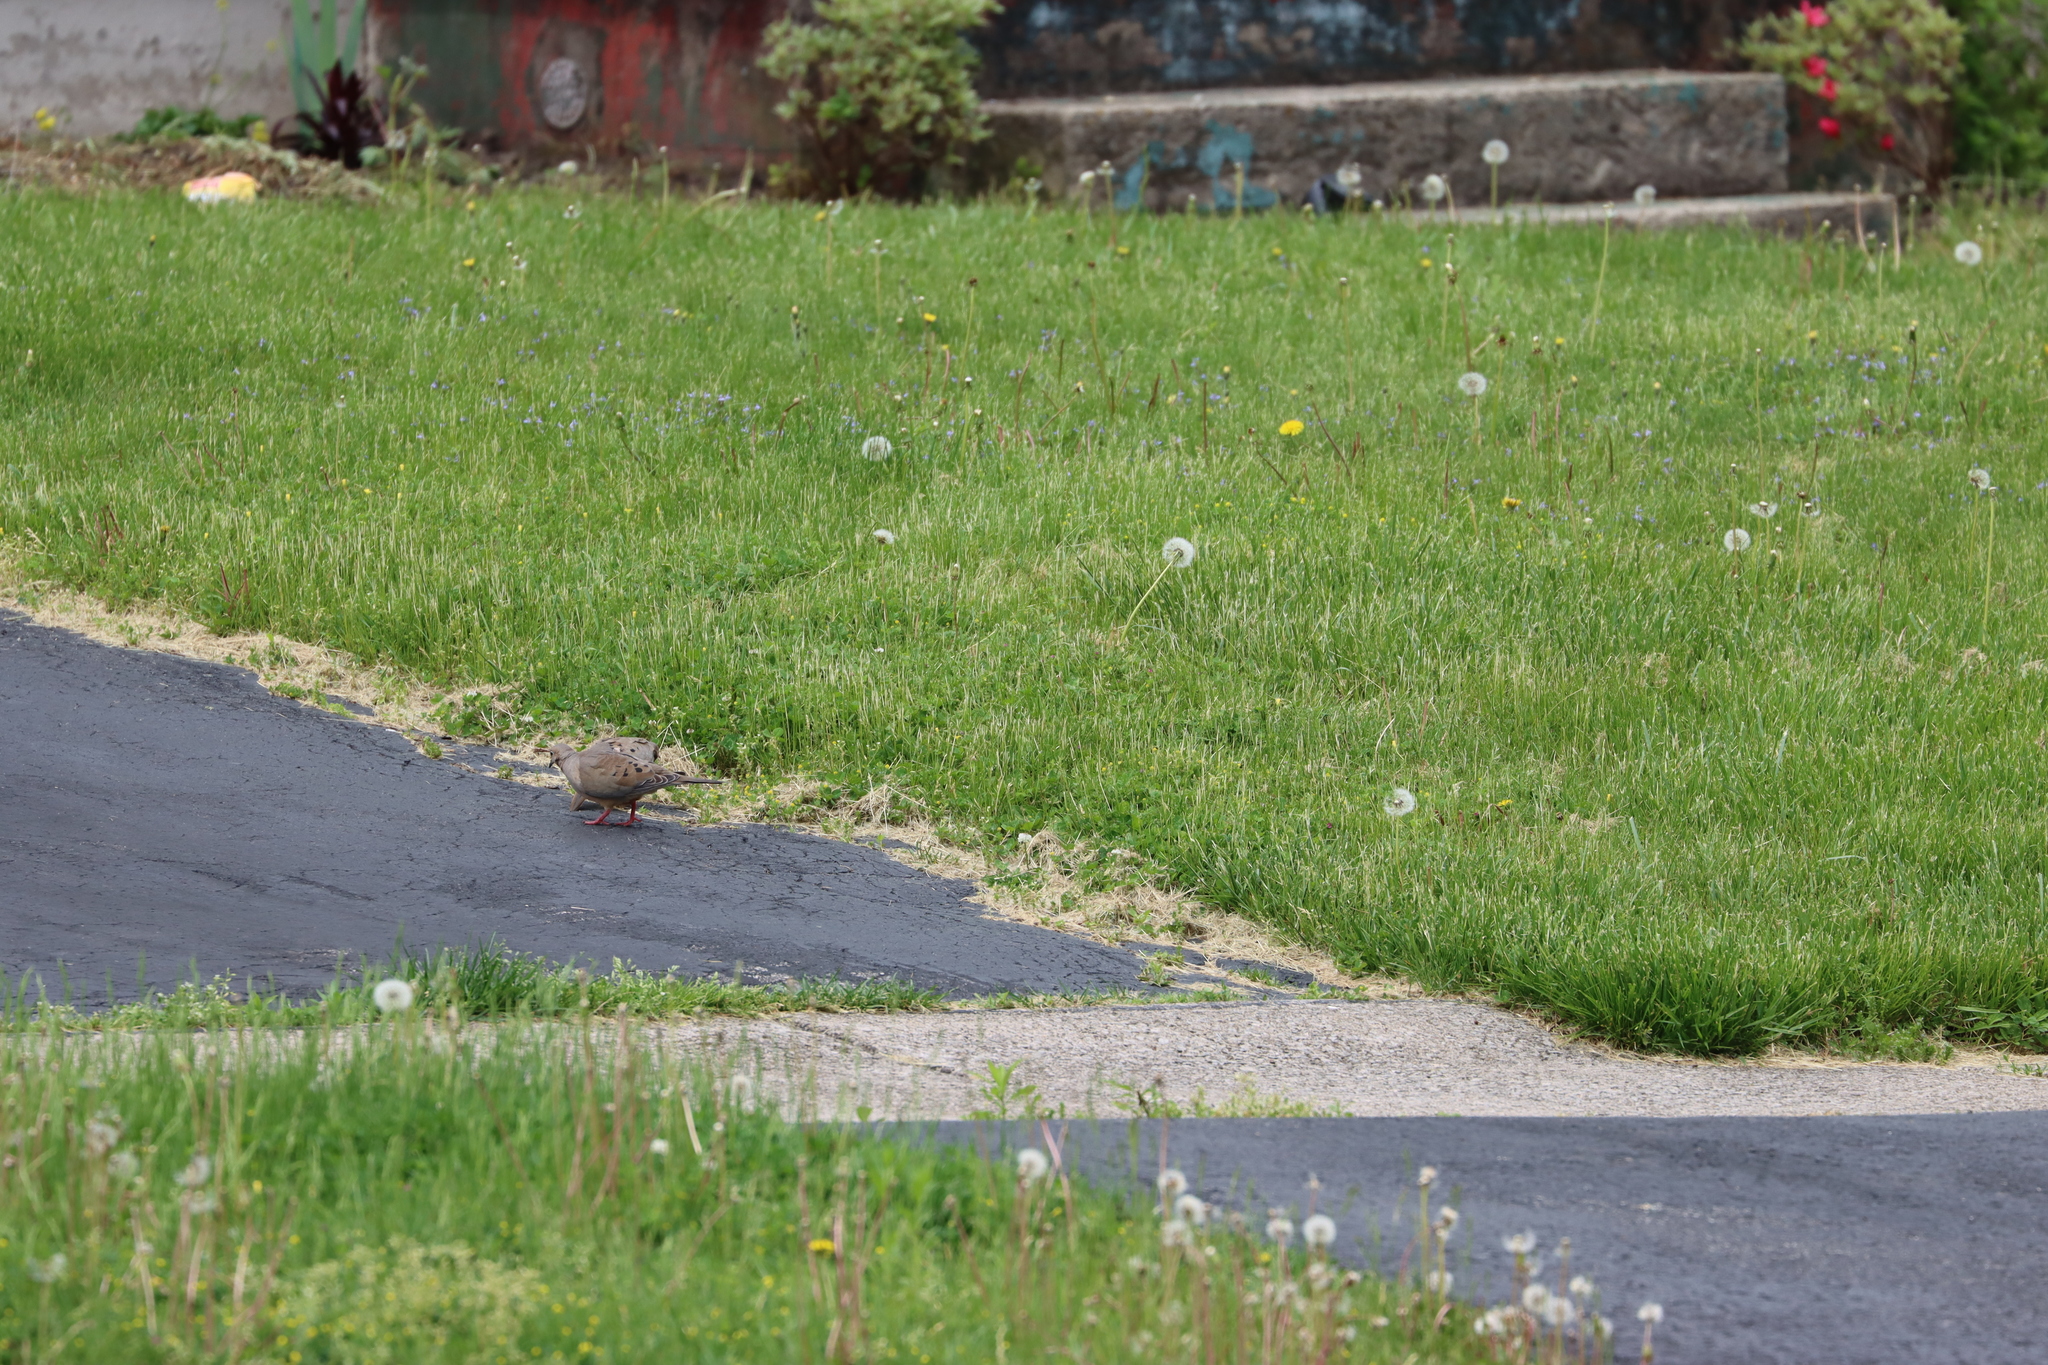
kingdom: Animalia
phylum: Chordata
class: Aves
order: Columbiformes
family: Columbidae
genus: Zenaida
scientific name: Zenaida macroura
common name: Mourning dove
